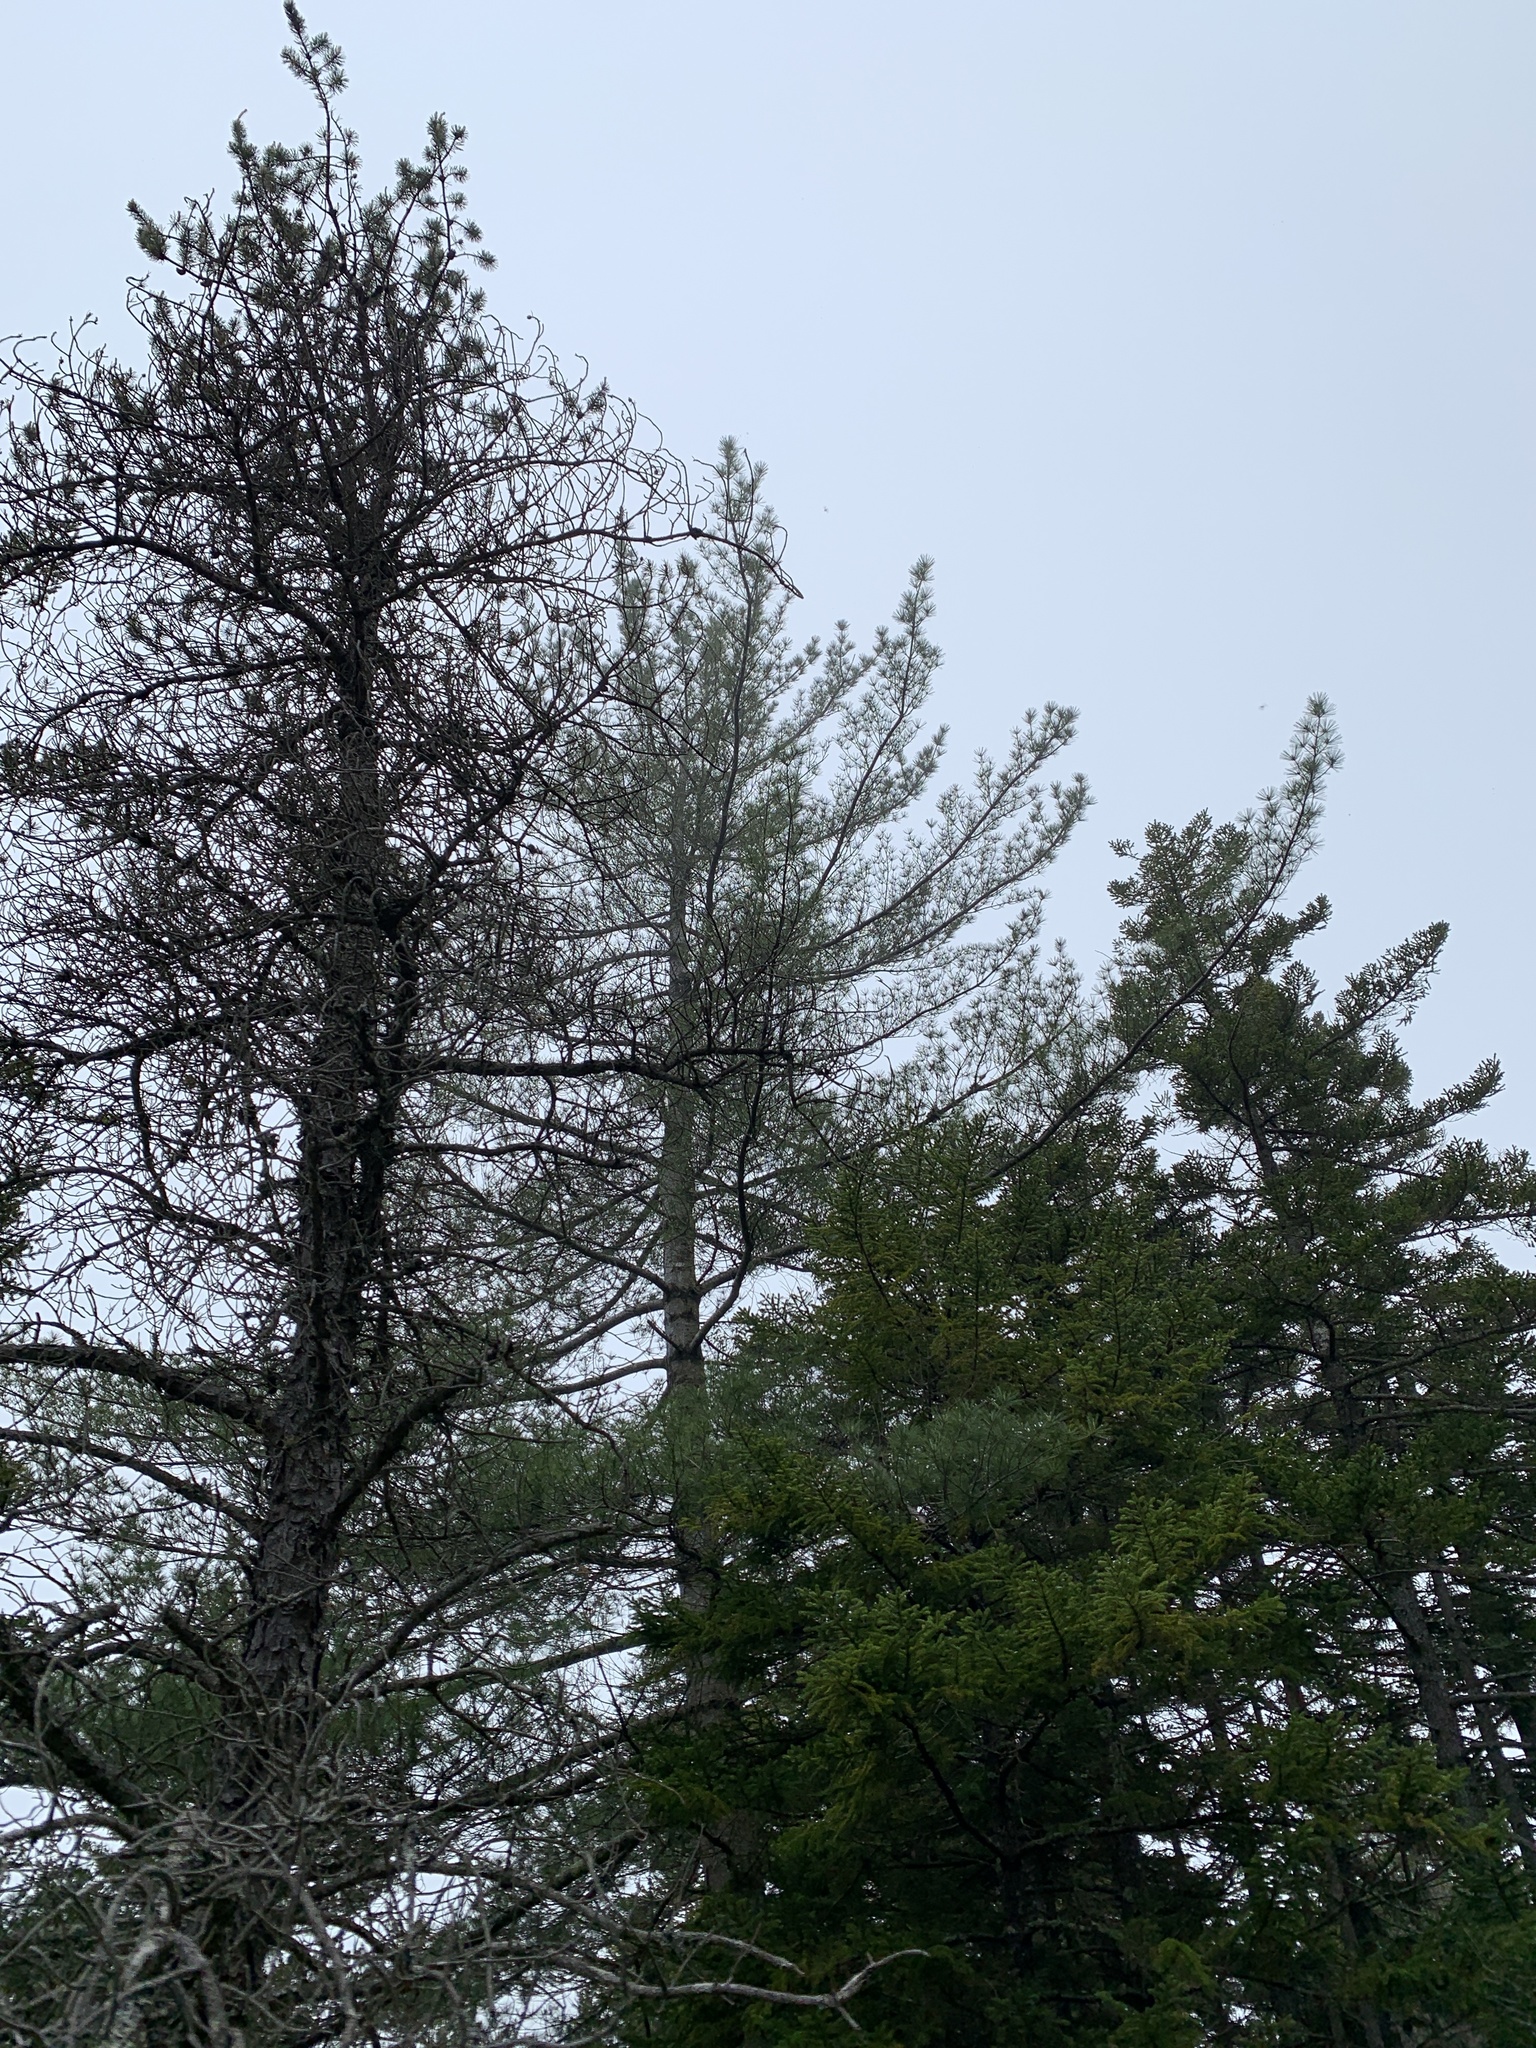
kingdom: Plantae
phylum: Tracheophyta
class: Pinopsida
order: Pinales
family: Pinaceae
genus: Pinus
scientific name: Pinus strobus
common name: Weymouth pine
